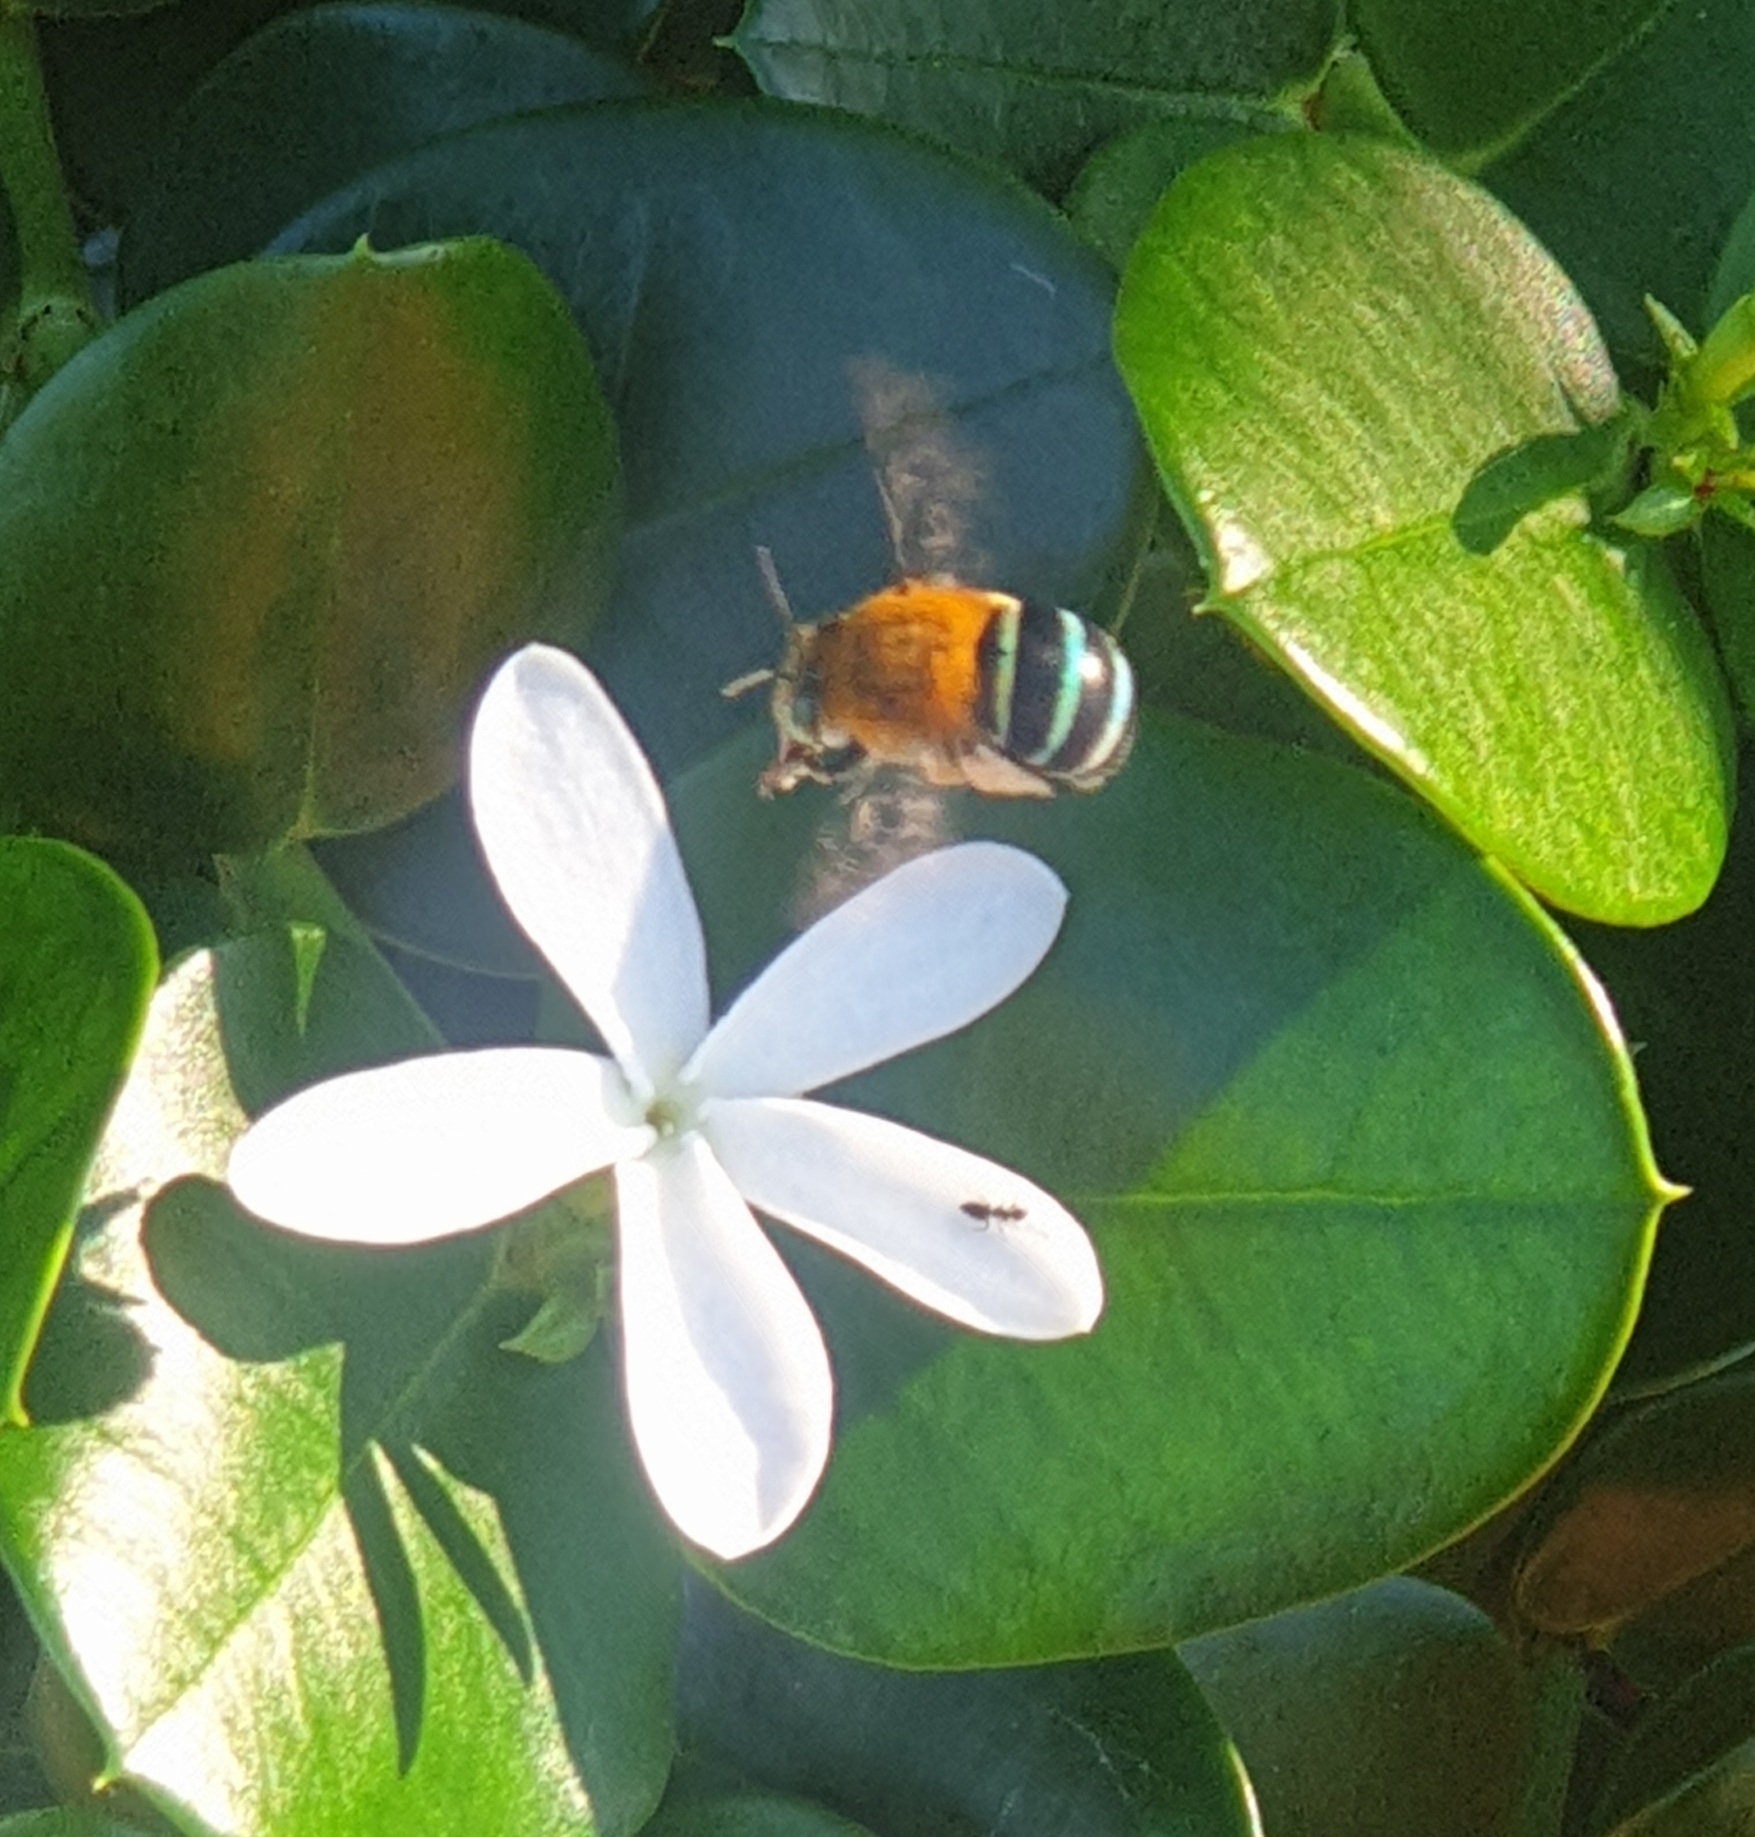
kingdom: Animalia
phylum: Arthropoda
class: Insecta
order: Hymenoptera
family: Apidae
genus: Amegilla
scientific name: Amegilla cingulata
